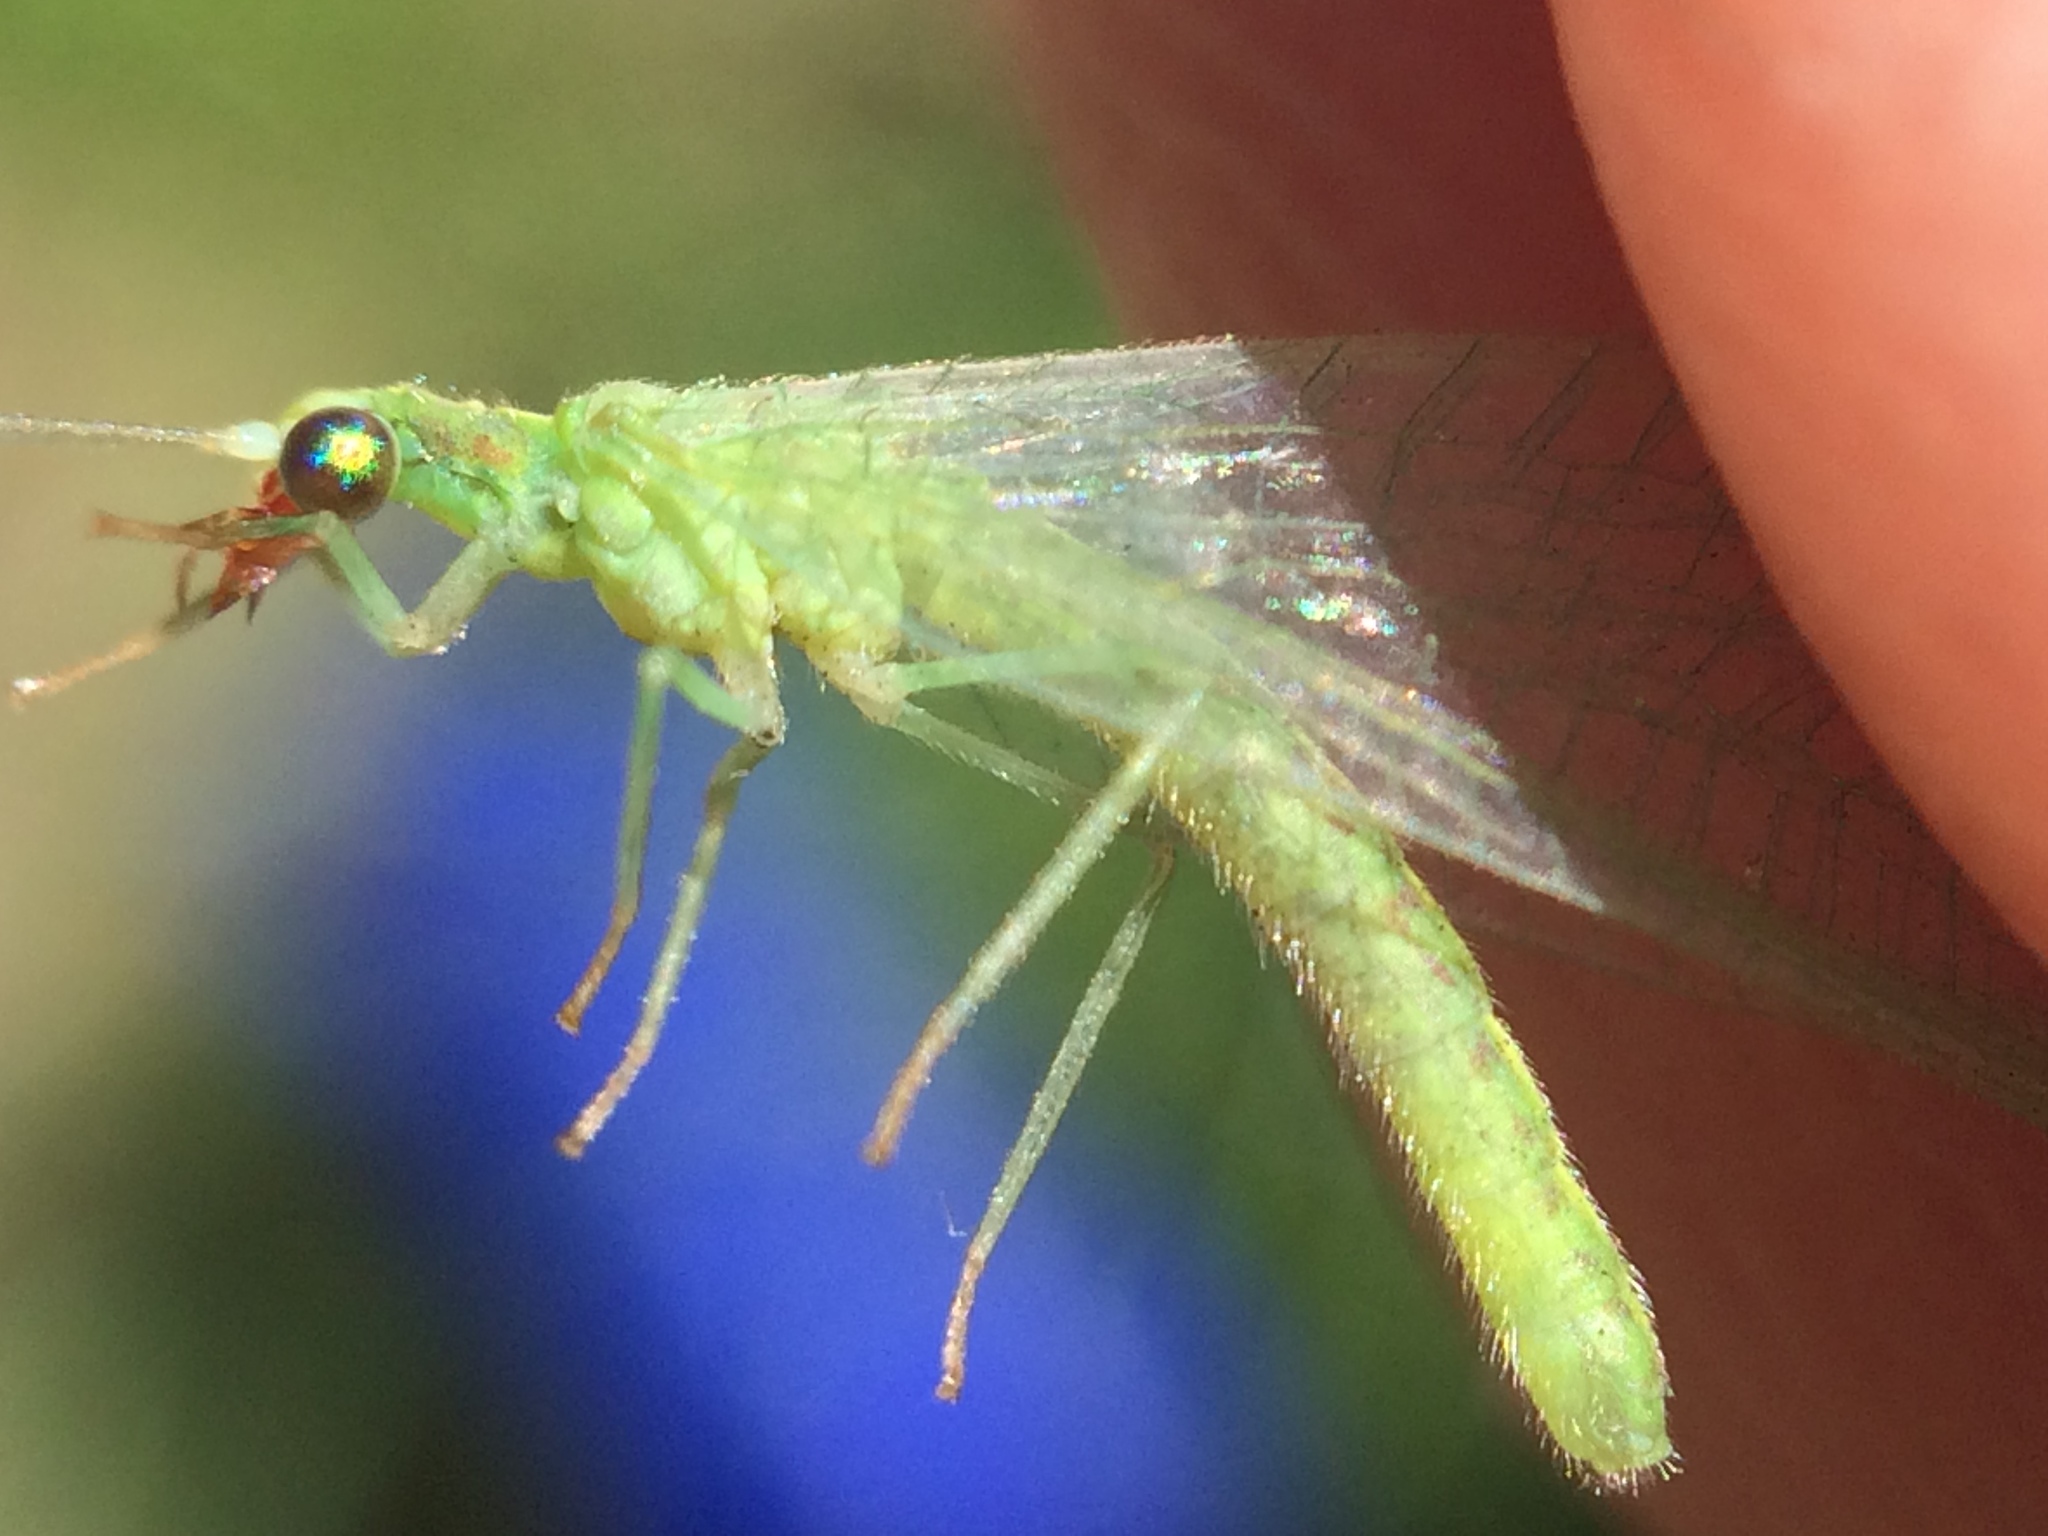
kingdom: Animalia
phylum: Arthropoda
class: Insecta
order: Neuroptera
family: Chrysopidae
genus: Chrysoperla
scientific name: Chrysoperla comanche
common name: Green lacewing
